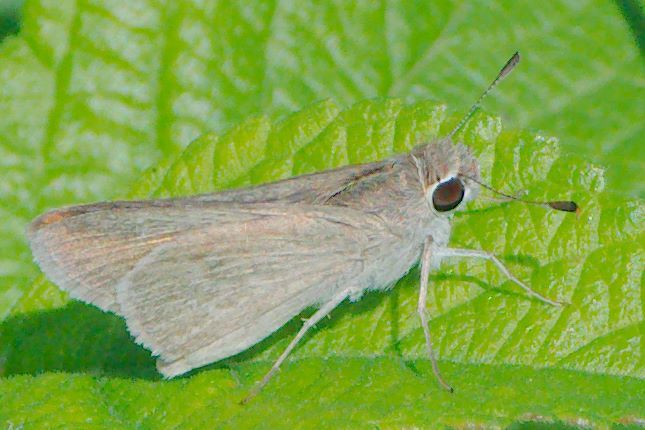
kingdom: Animalia
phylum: Arthropoda
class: Insecta
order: Lepidoptera
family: Hesperiidae
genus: Lerodea
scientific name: Lerodea eufala
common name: Eufala skipper
